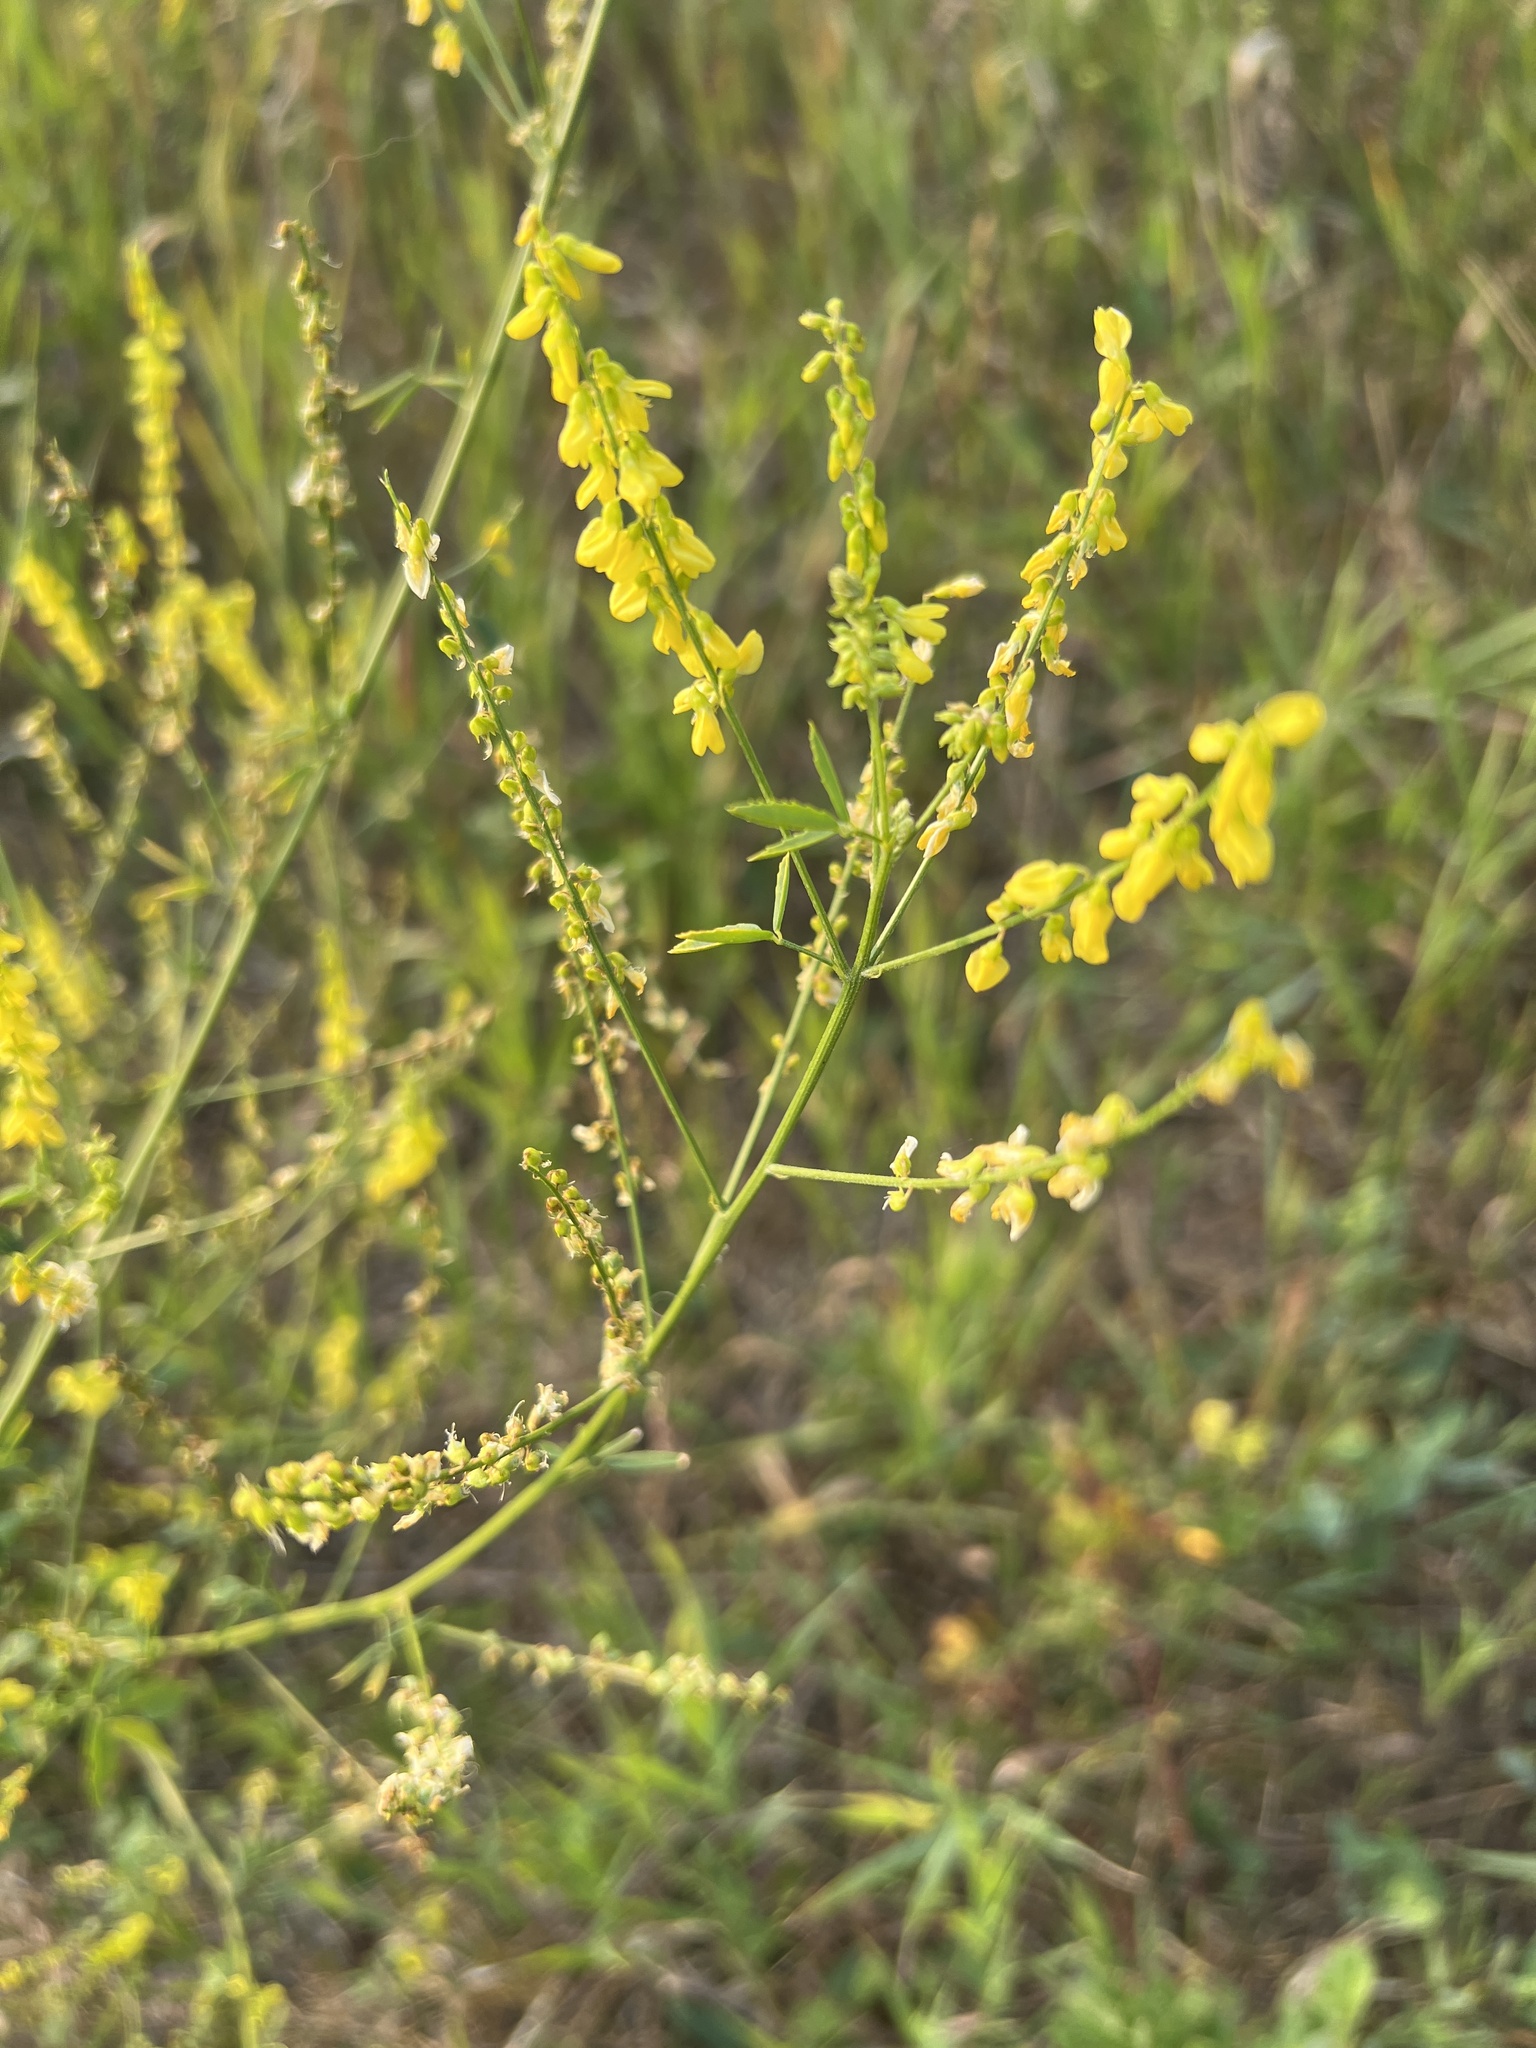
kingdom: Plantae
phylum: Tracheophyta
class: Magnoliopsida
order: Fabales
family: Fabaceae
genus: Melilotus
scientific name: Melilotus officinalis
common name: Sweetclover
